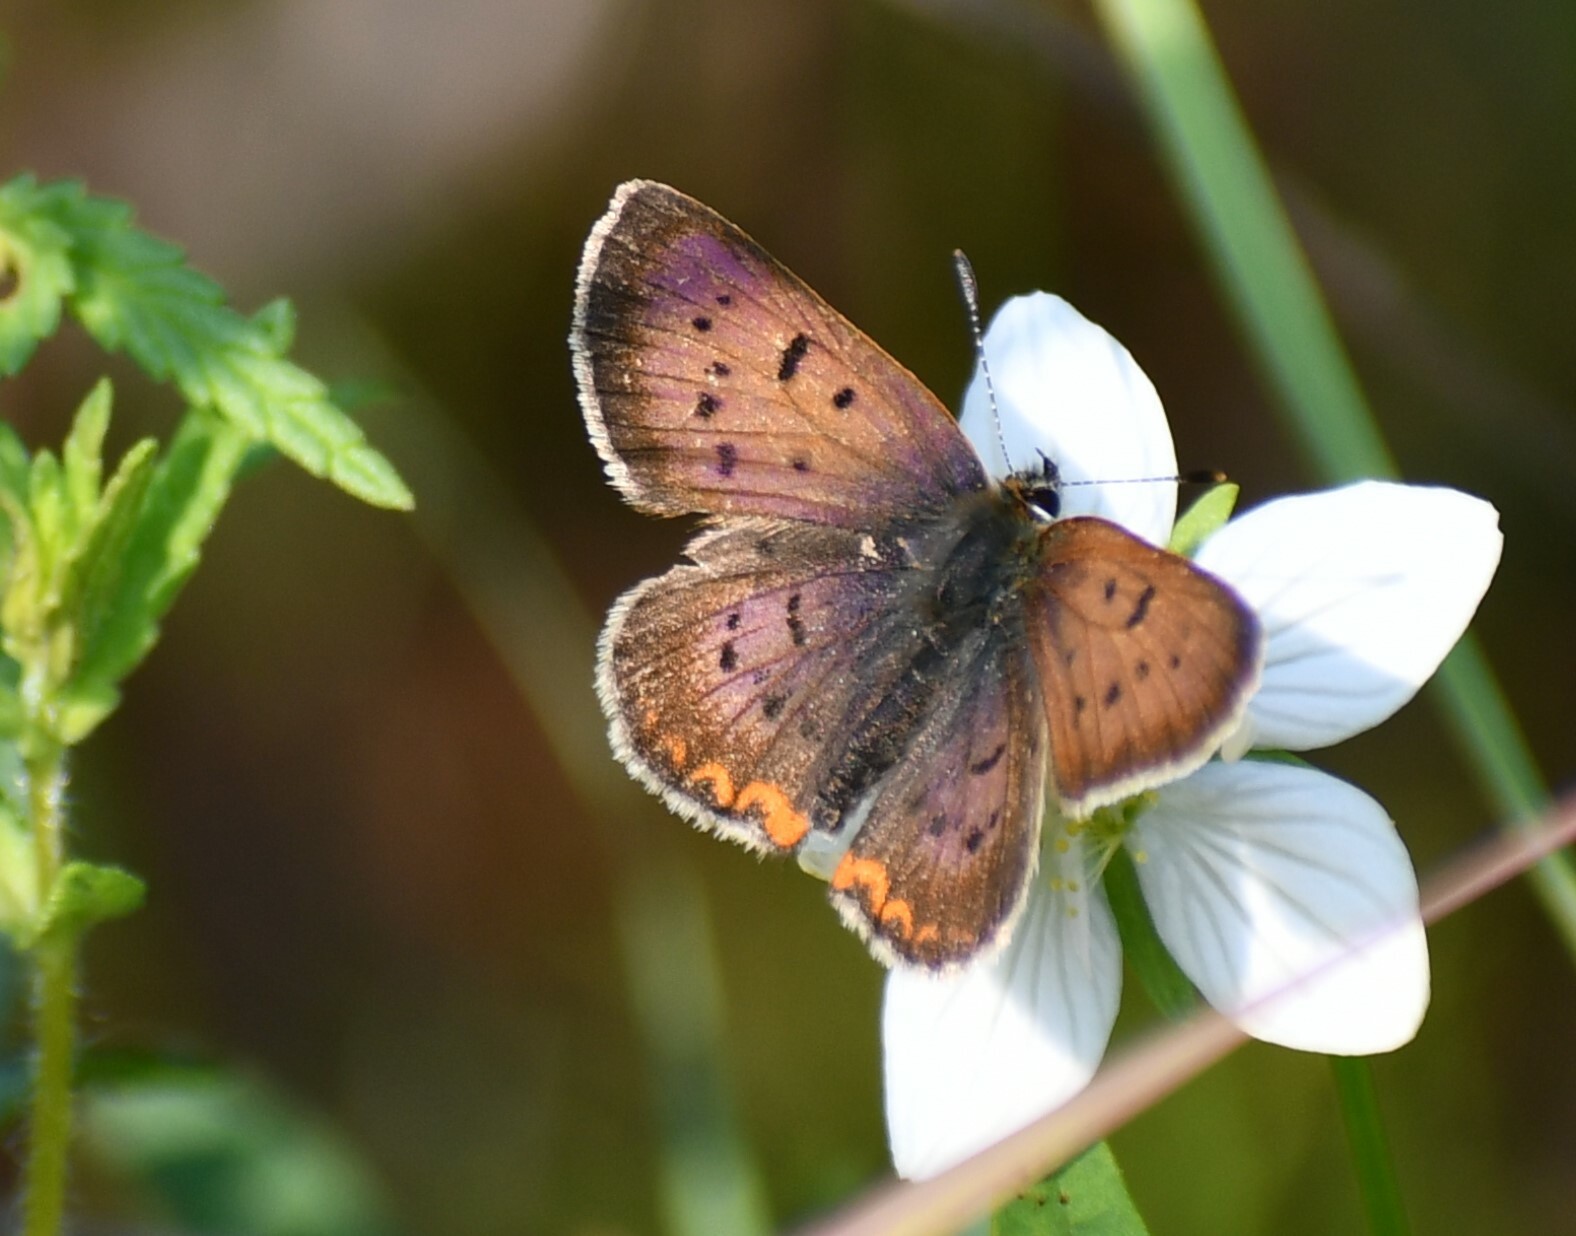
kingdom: Animalia
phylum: Arthropoda
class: Insecta
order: Lepidoptera
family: Lycaenidae
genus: Tharsalea
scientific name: Tharsalea dorcas
